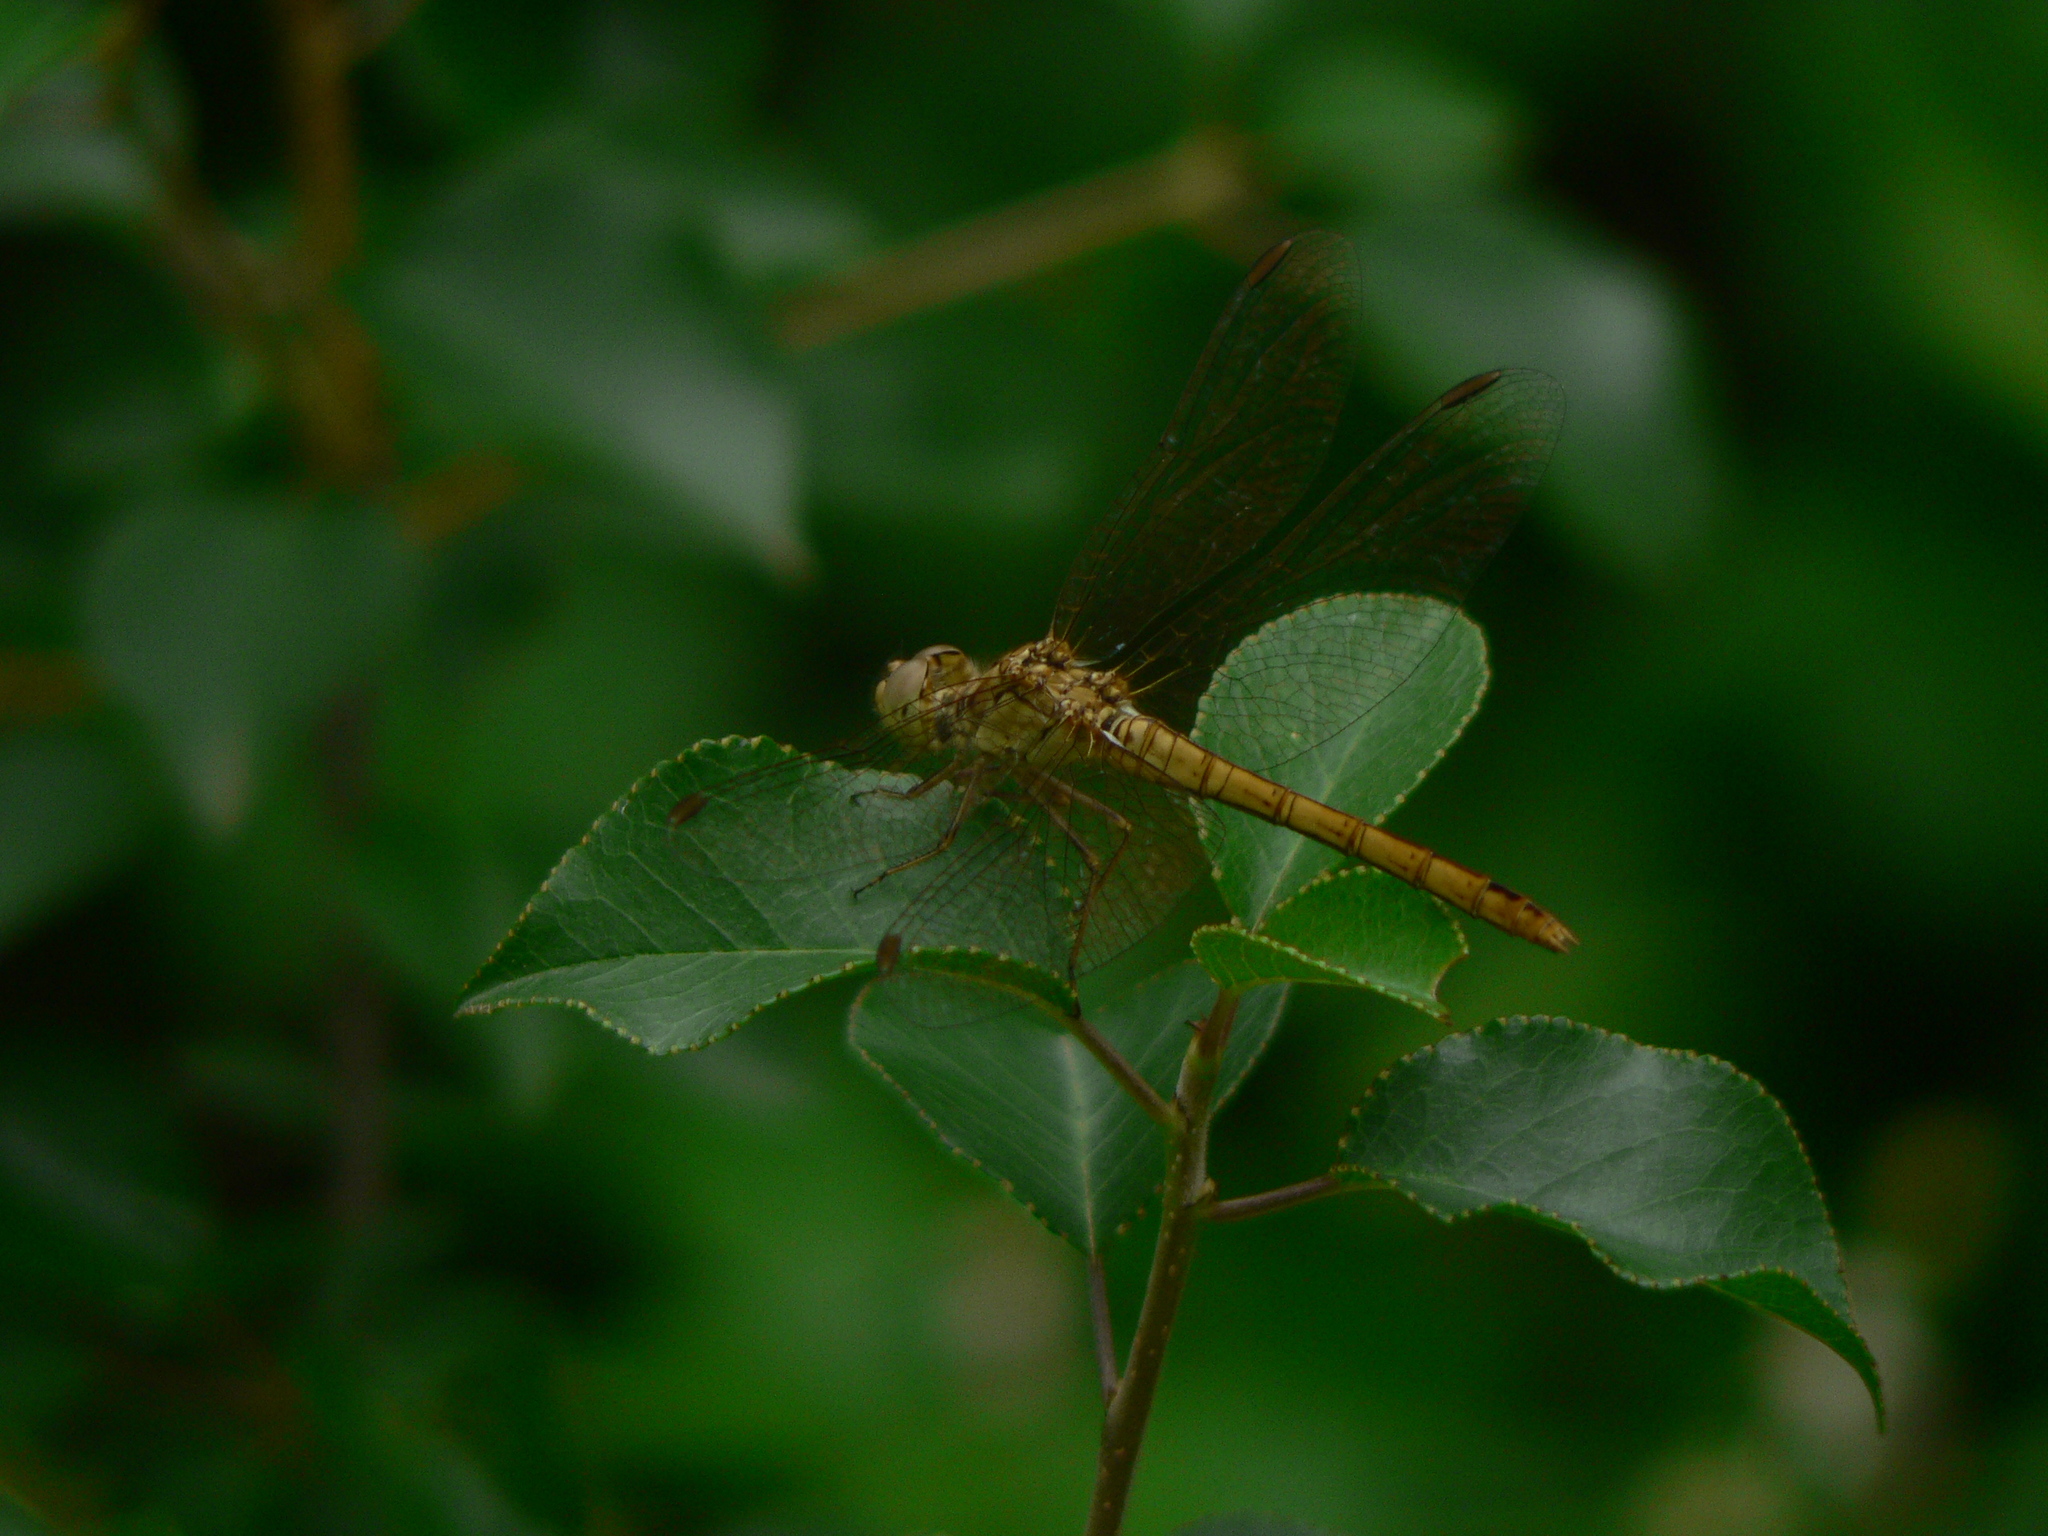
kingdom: Animalia
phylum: Arthropoda
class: Insecta
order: Odonata
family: Libellulidae
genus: Sympetrum
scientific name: Sympetrum meridionale
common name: Southern darter
